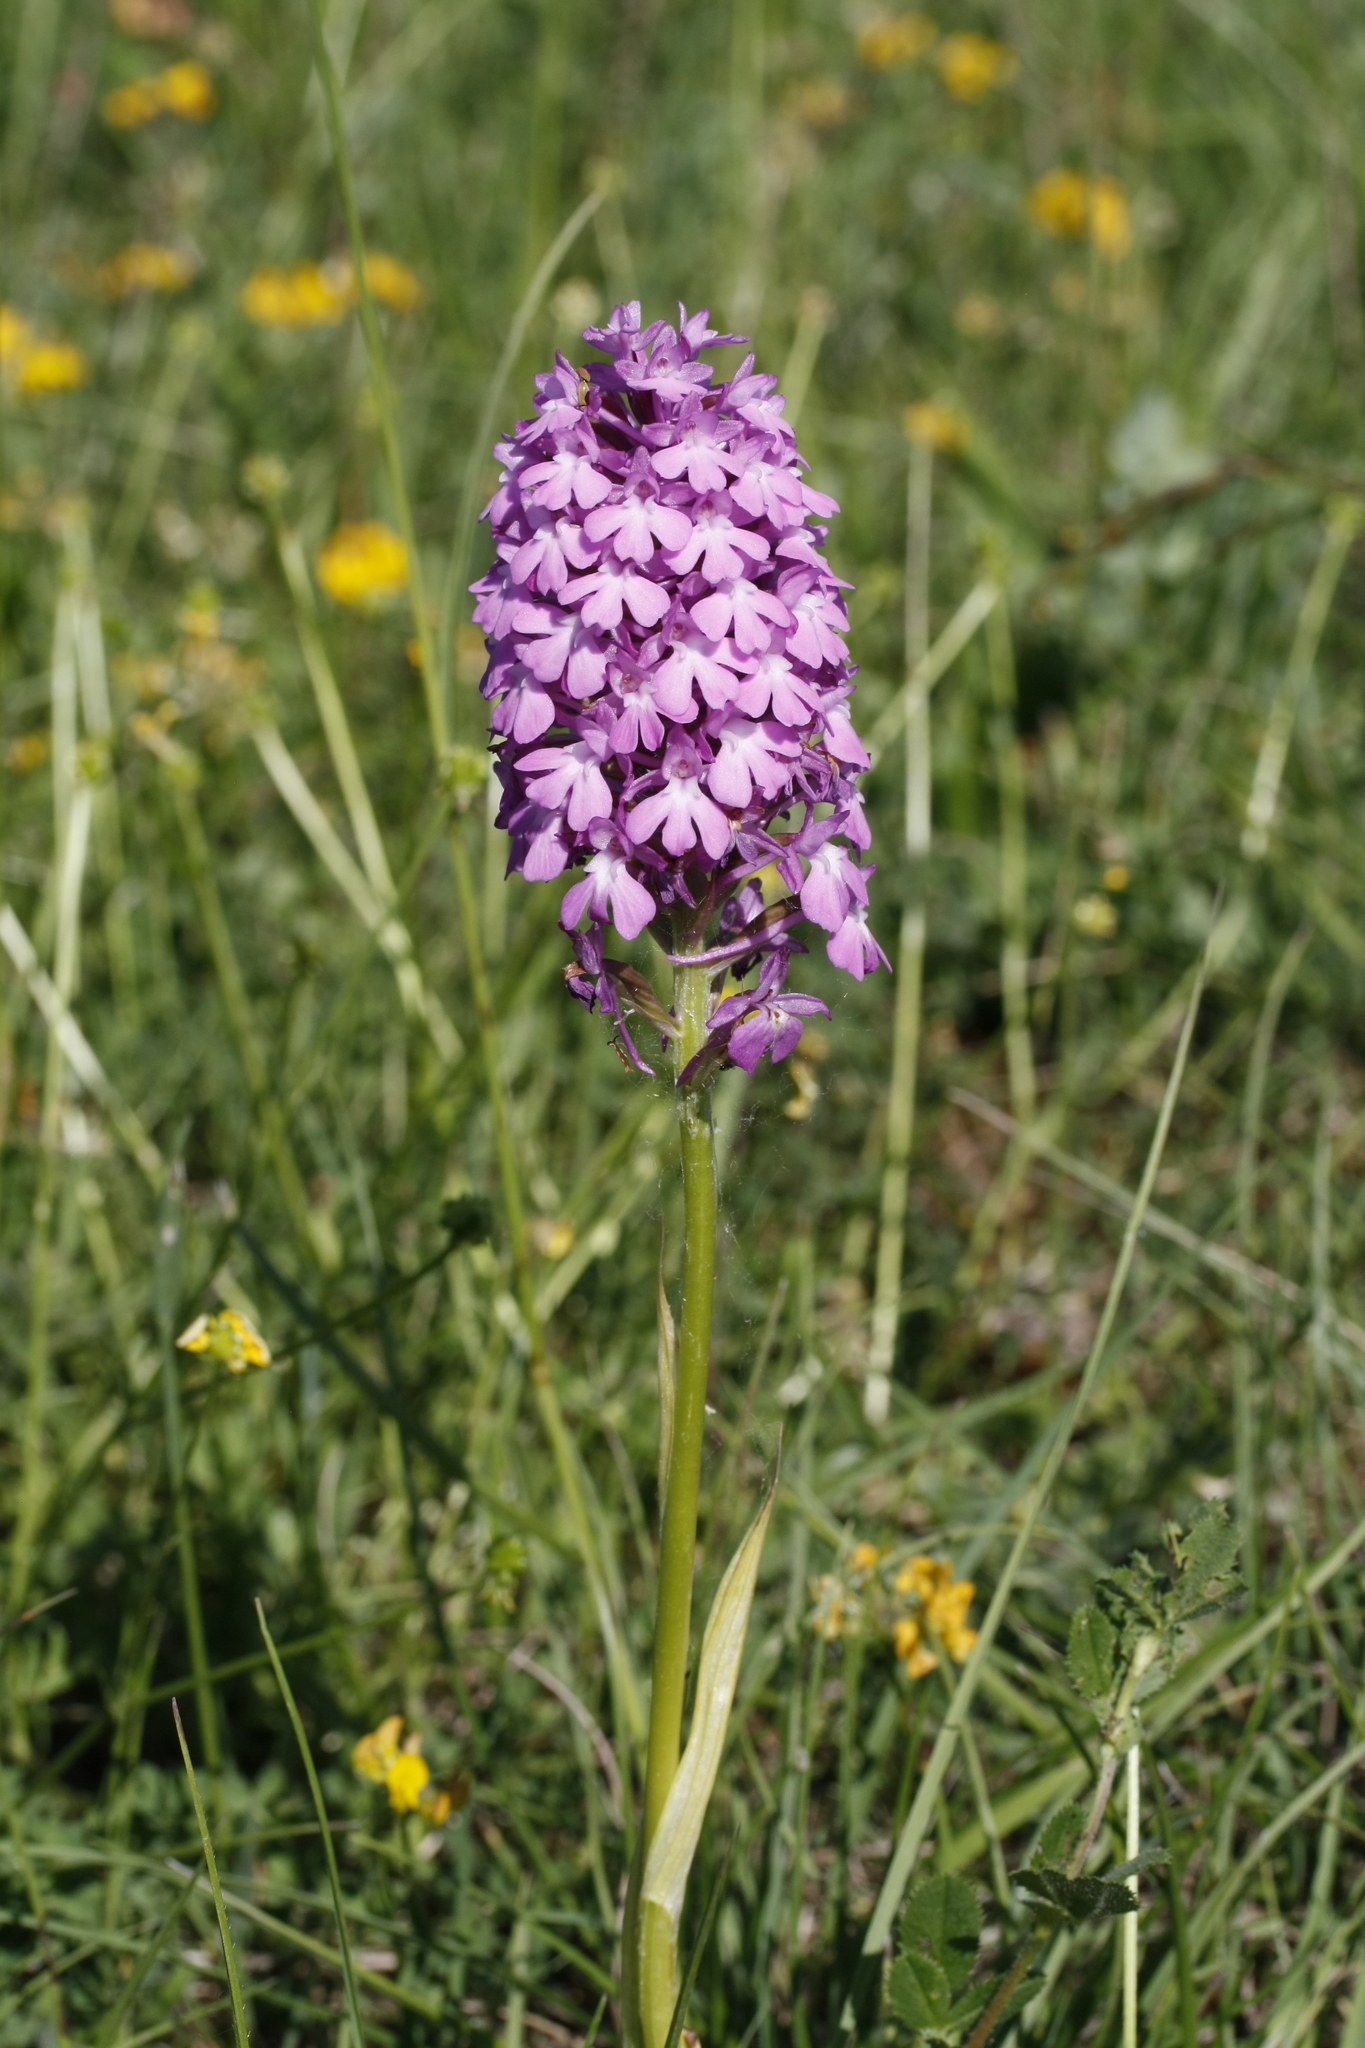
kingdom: Plantae
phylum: Tracheophyta
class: Liliopsida
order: Asparagales
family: Orchidaceae
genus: Anacamptis
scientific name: Anacamptis pyramidalis
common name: Pyramidal orchid
